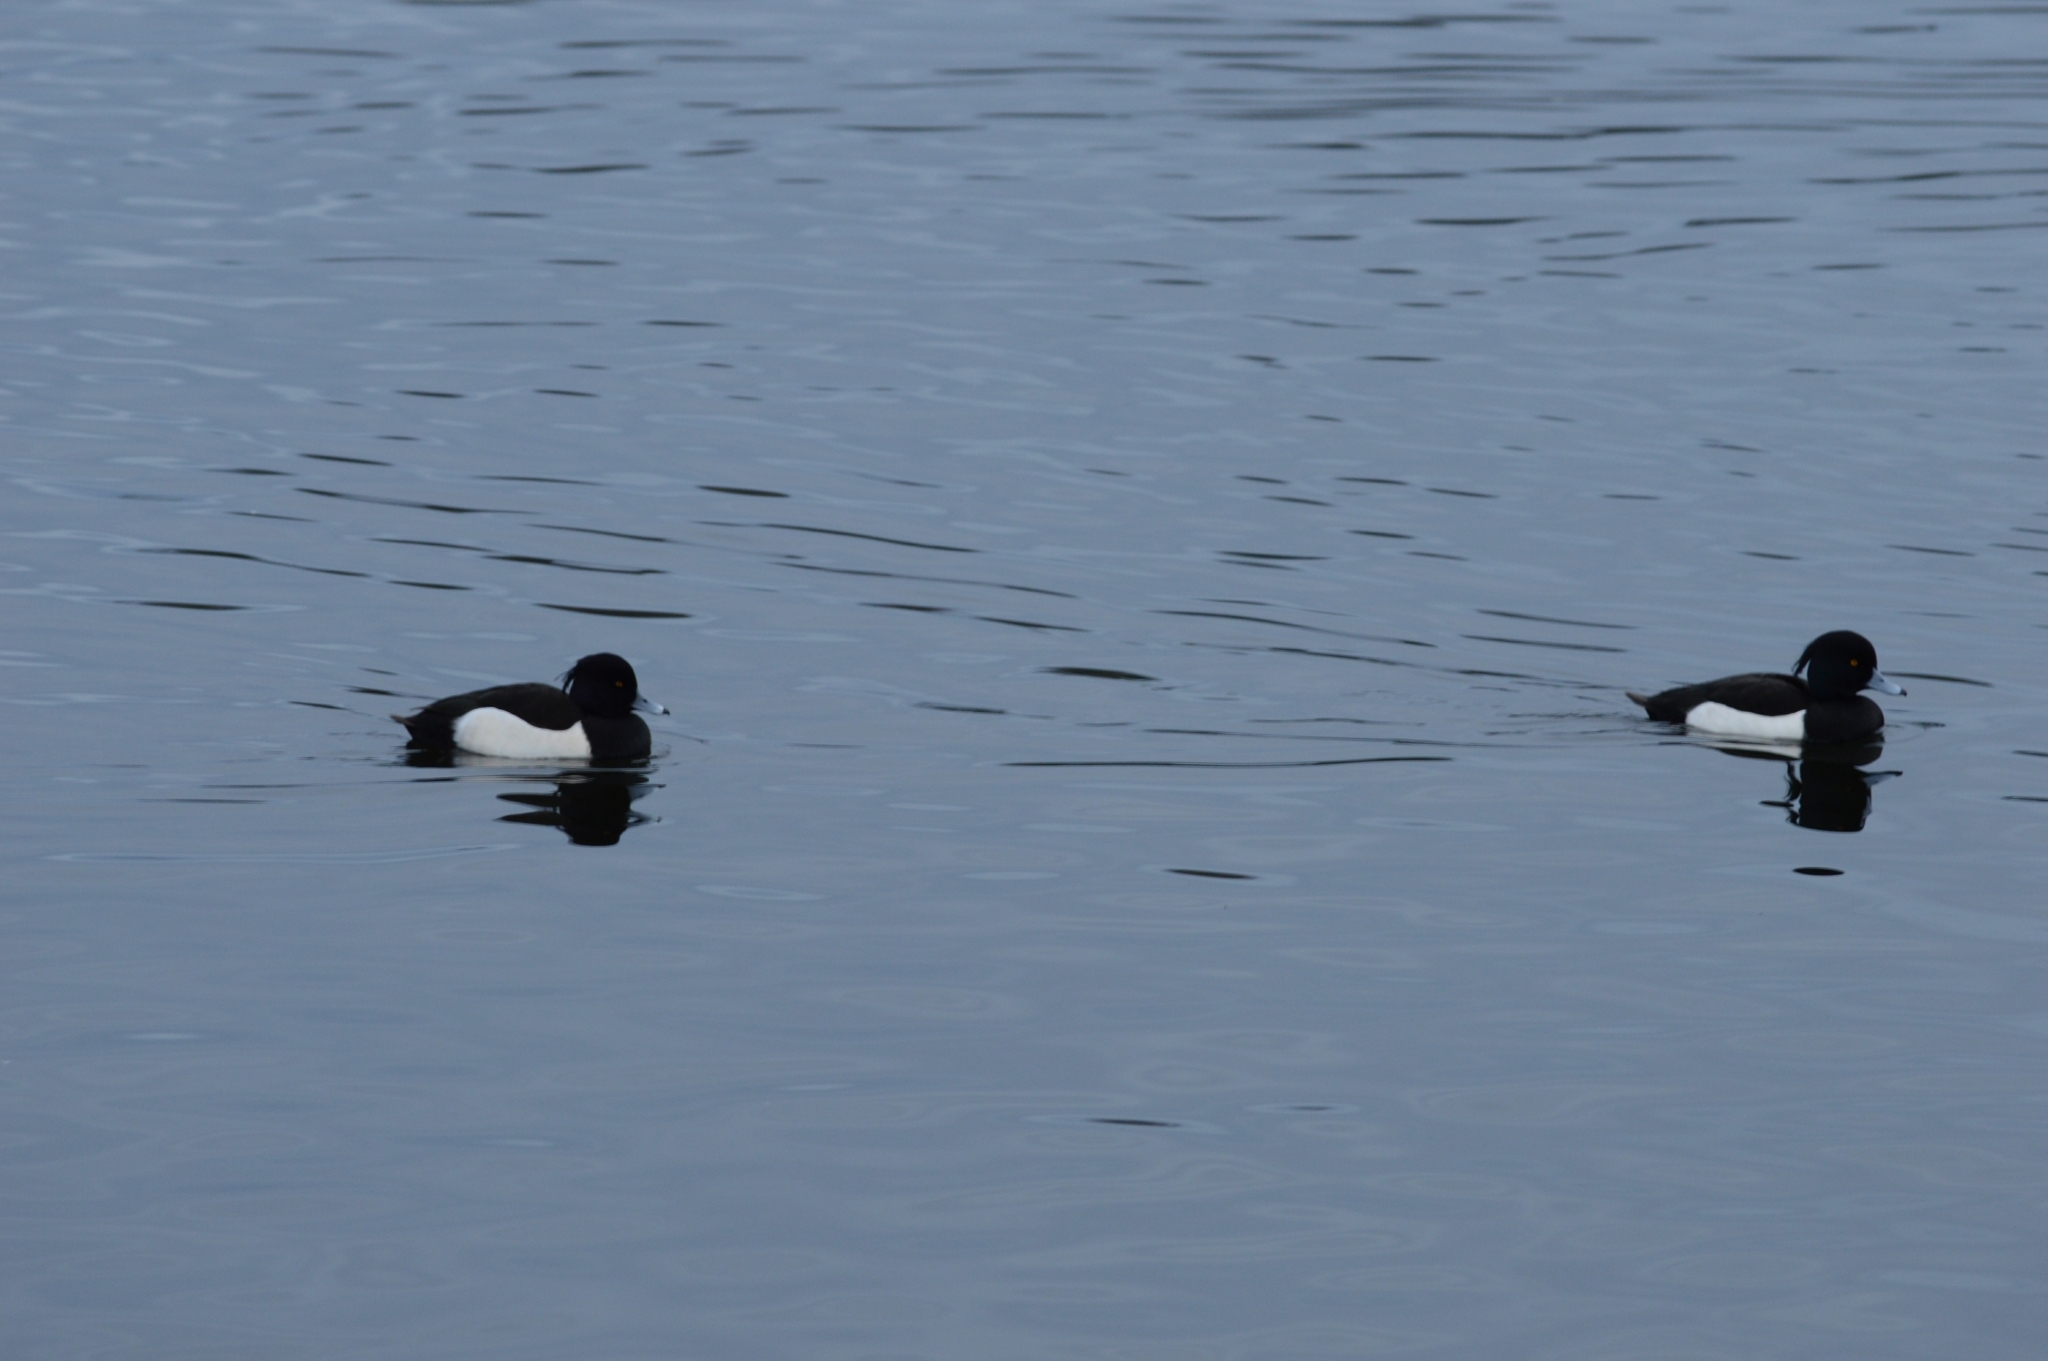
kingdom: Animalia
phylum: Chordata
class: Aves
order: Anseriformes
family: Anatidae
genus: Aythya
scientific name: Aythya fuligula
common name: Tufted duck
